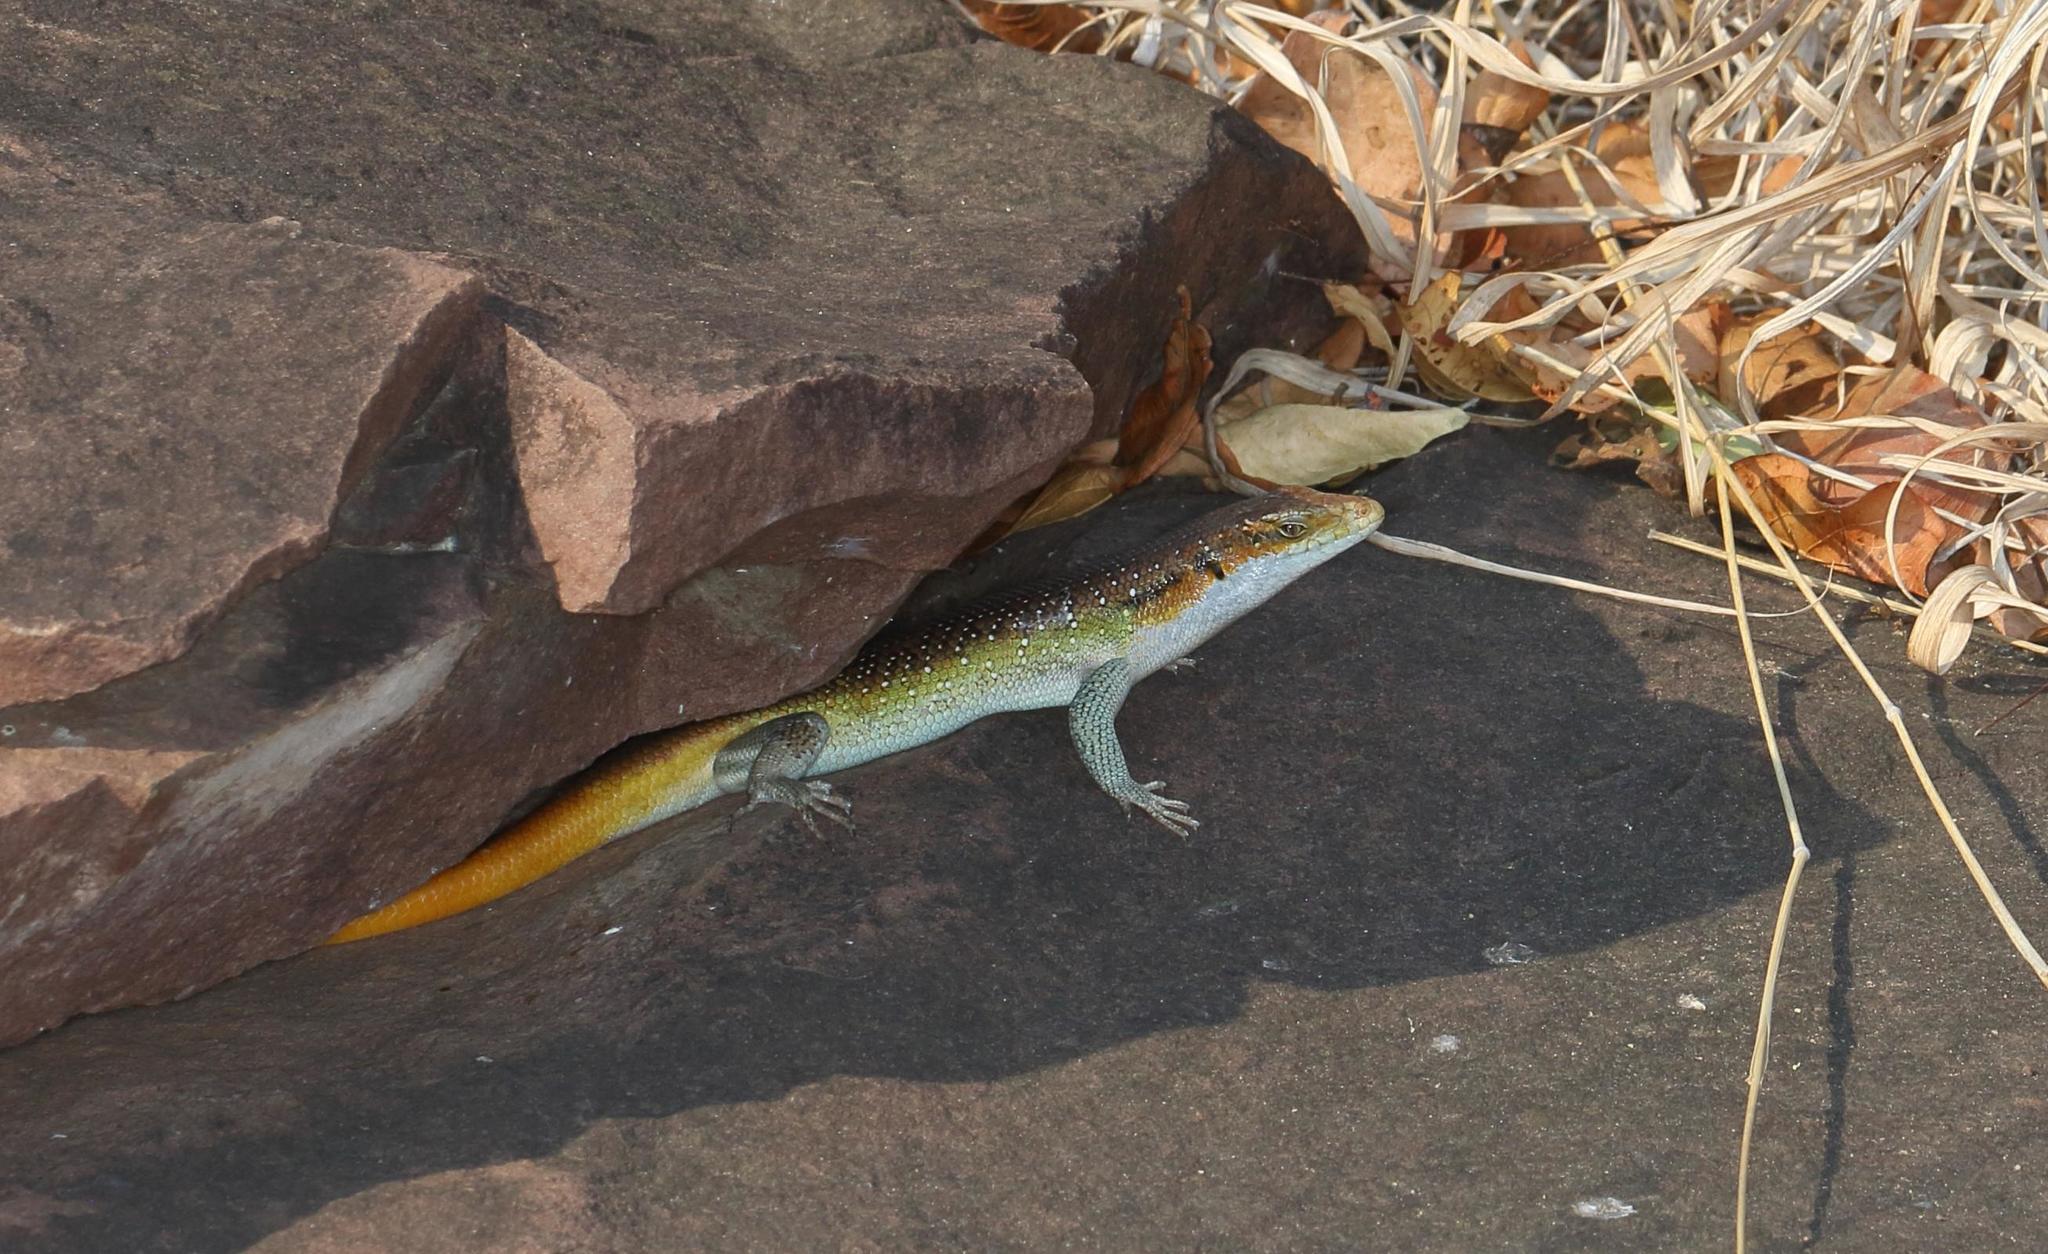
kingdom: Animalia
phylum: Chordata
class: Squamata
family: Scincidae
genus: Trachylepis
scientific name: Trachylepis margaritifera
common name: Rainbow skink
